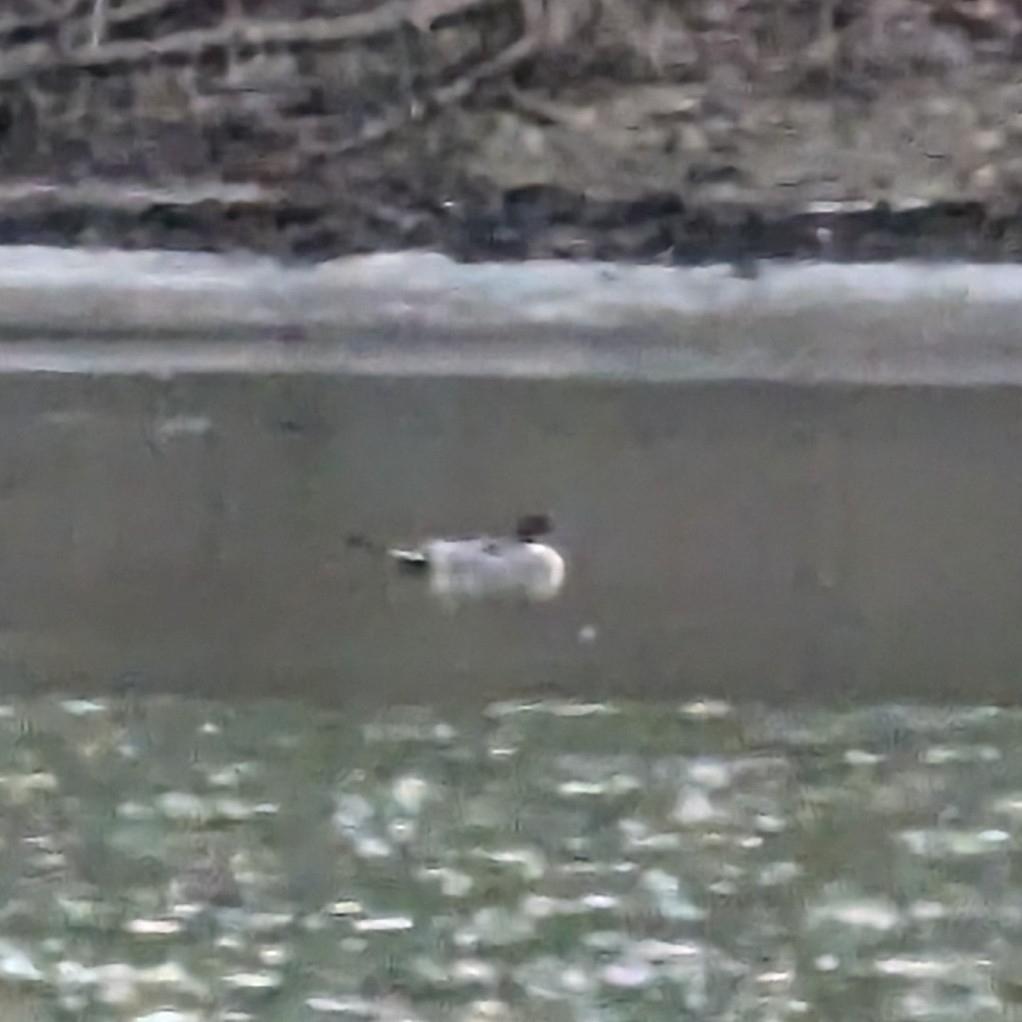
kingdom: Animalia
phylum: Chordata
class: Aves
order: Anseriformes
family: Anatidae
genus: Anas
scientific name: Anas acuta
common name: Northern pintail
